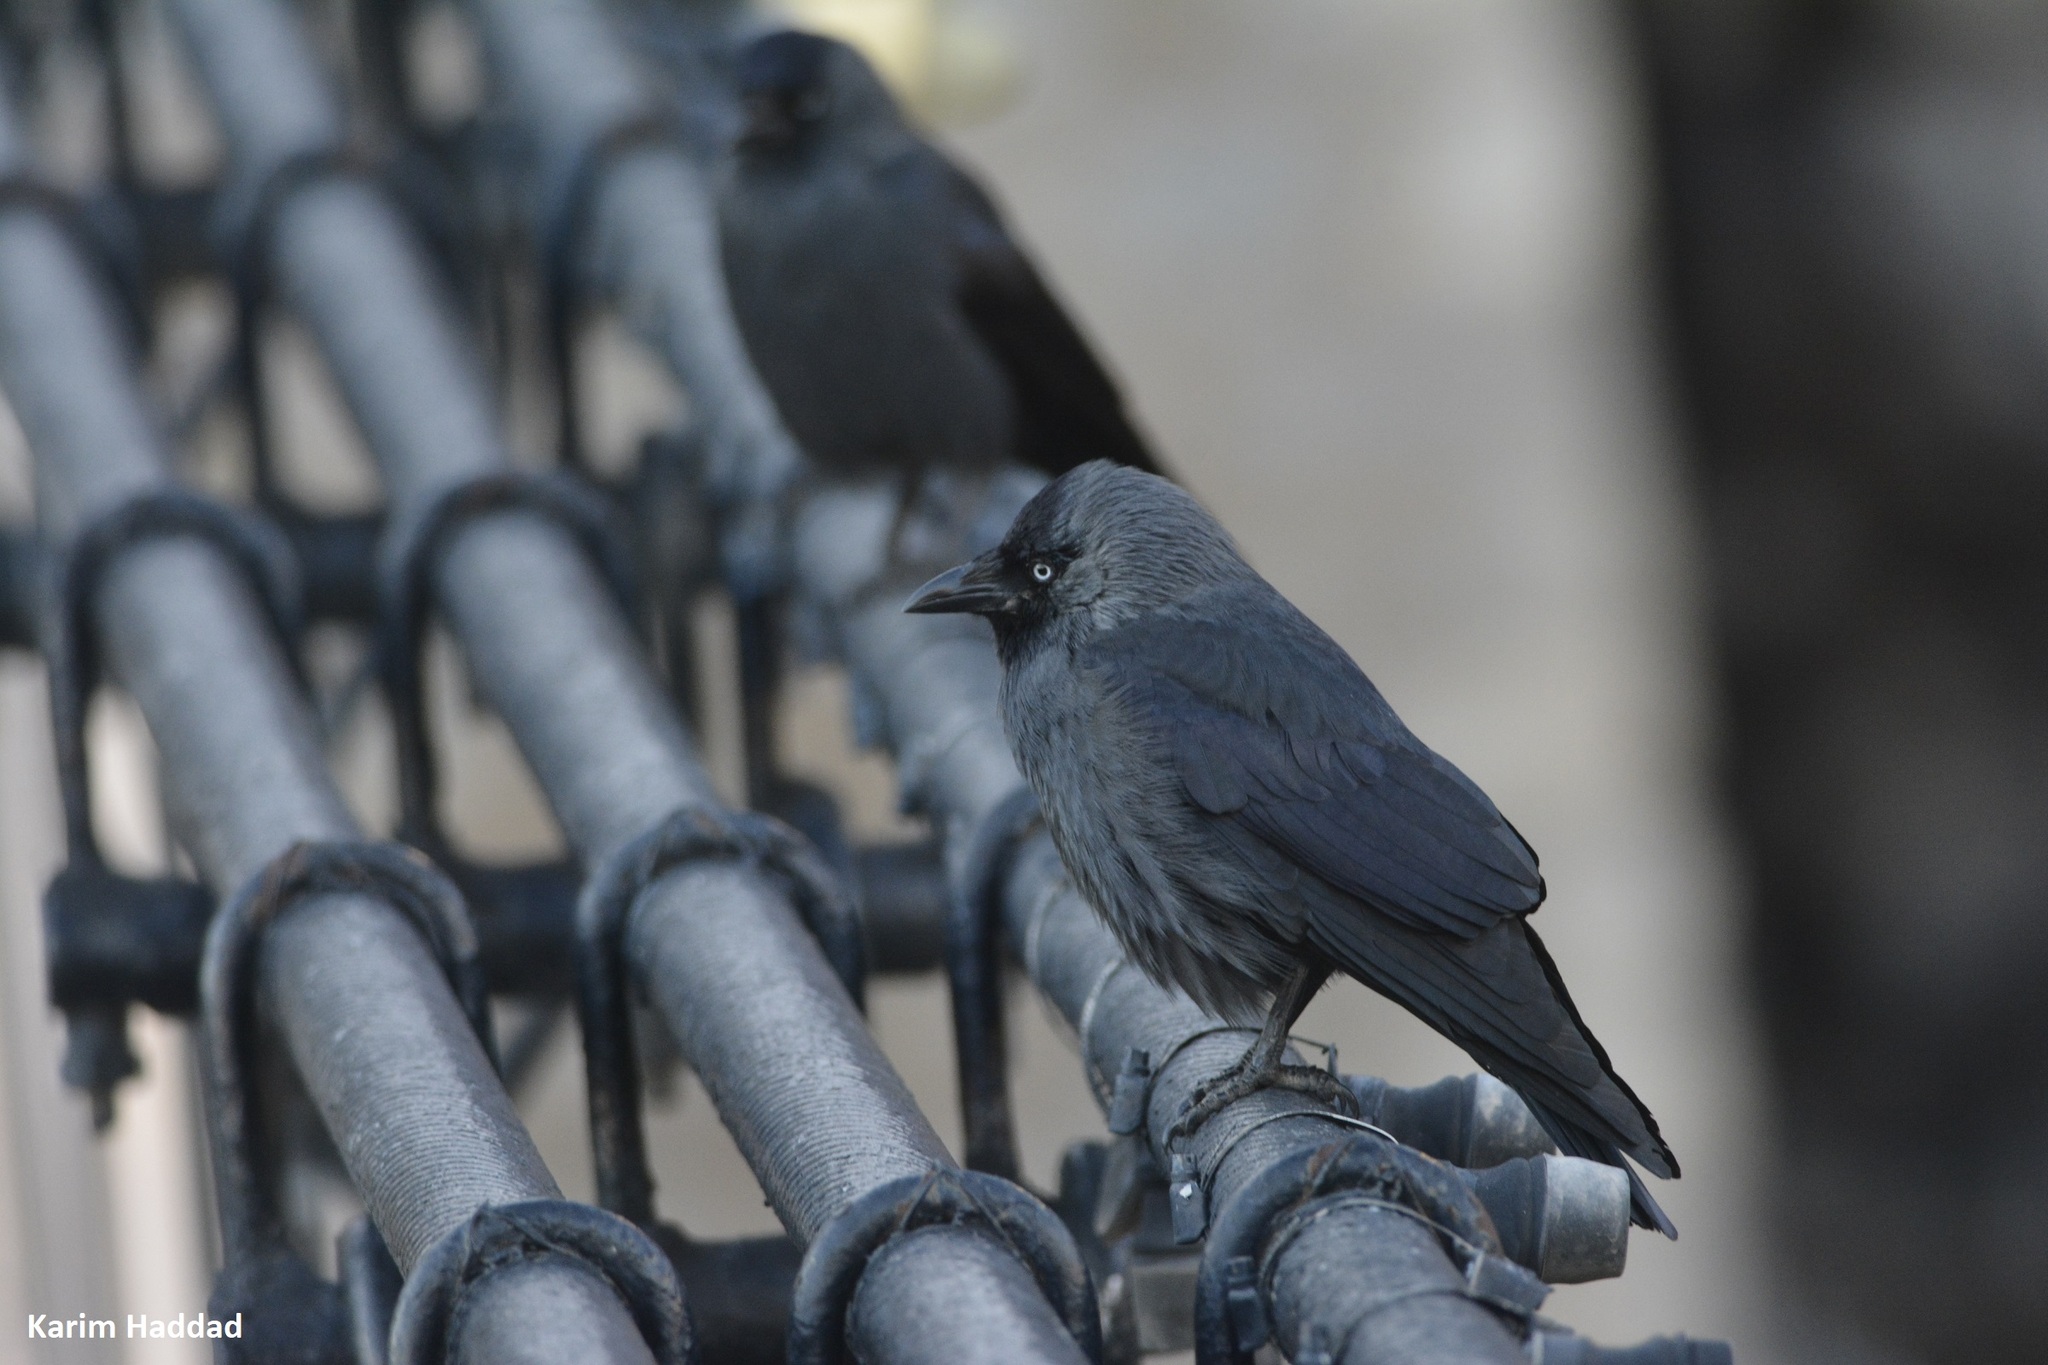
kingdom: Animalia
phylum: Chordata
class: Aves
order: Passeriformes
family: Corvidae
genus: Coloeus
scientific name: Coloeus monedula
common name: Western jackdaw
